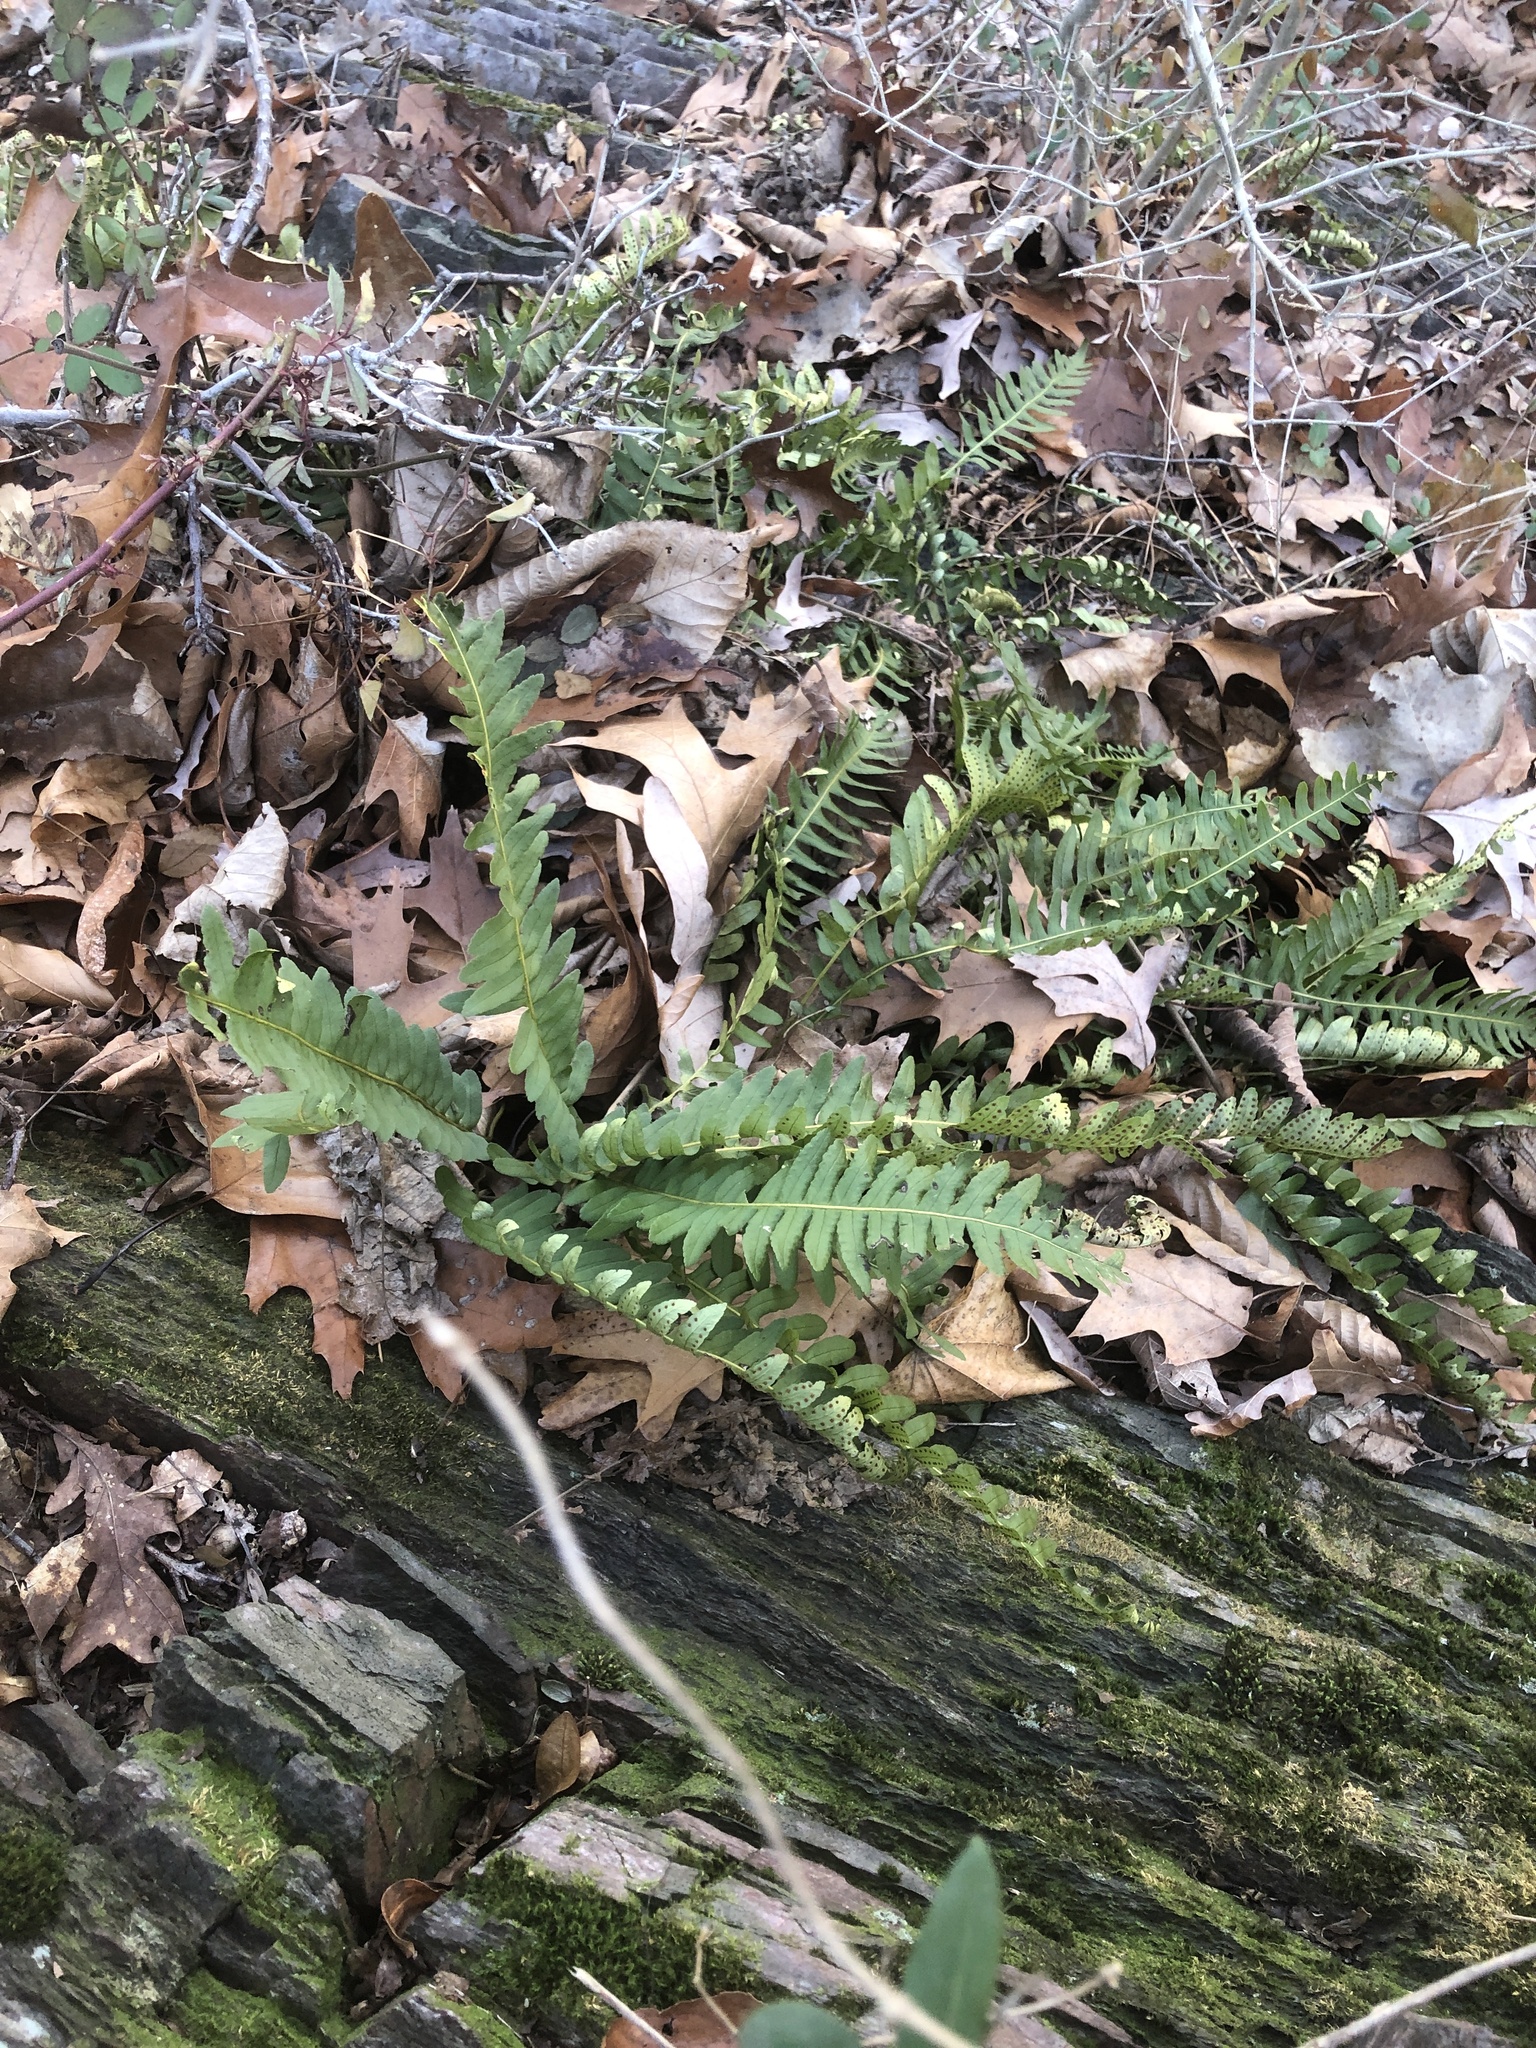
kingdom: Plantae
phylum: Tracheophyta
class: Polypodiopsida
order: Polypodiales
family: Polypodiaceae
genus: Polypodium
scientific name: Polypodium virginianum
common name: American wall fern
